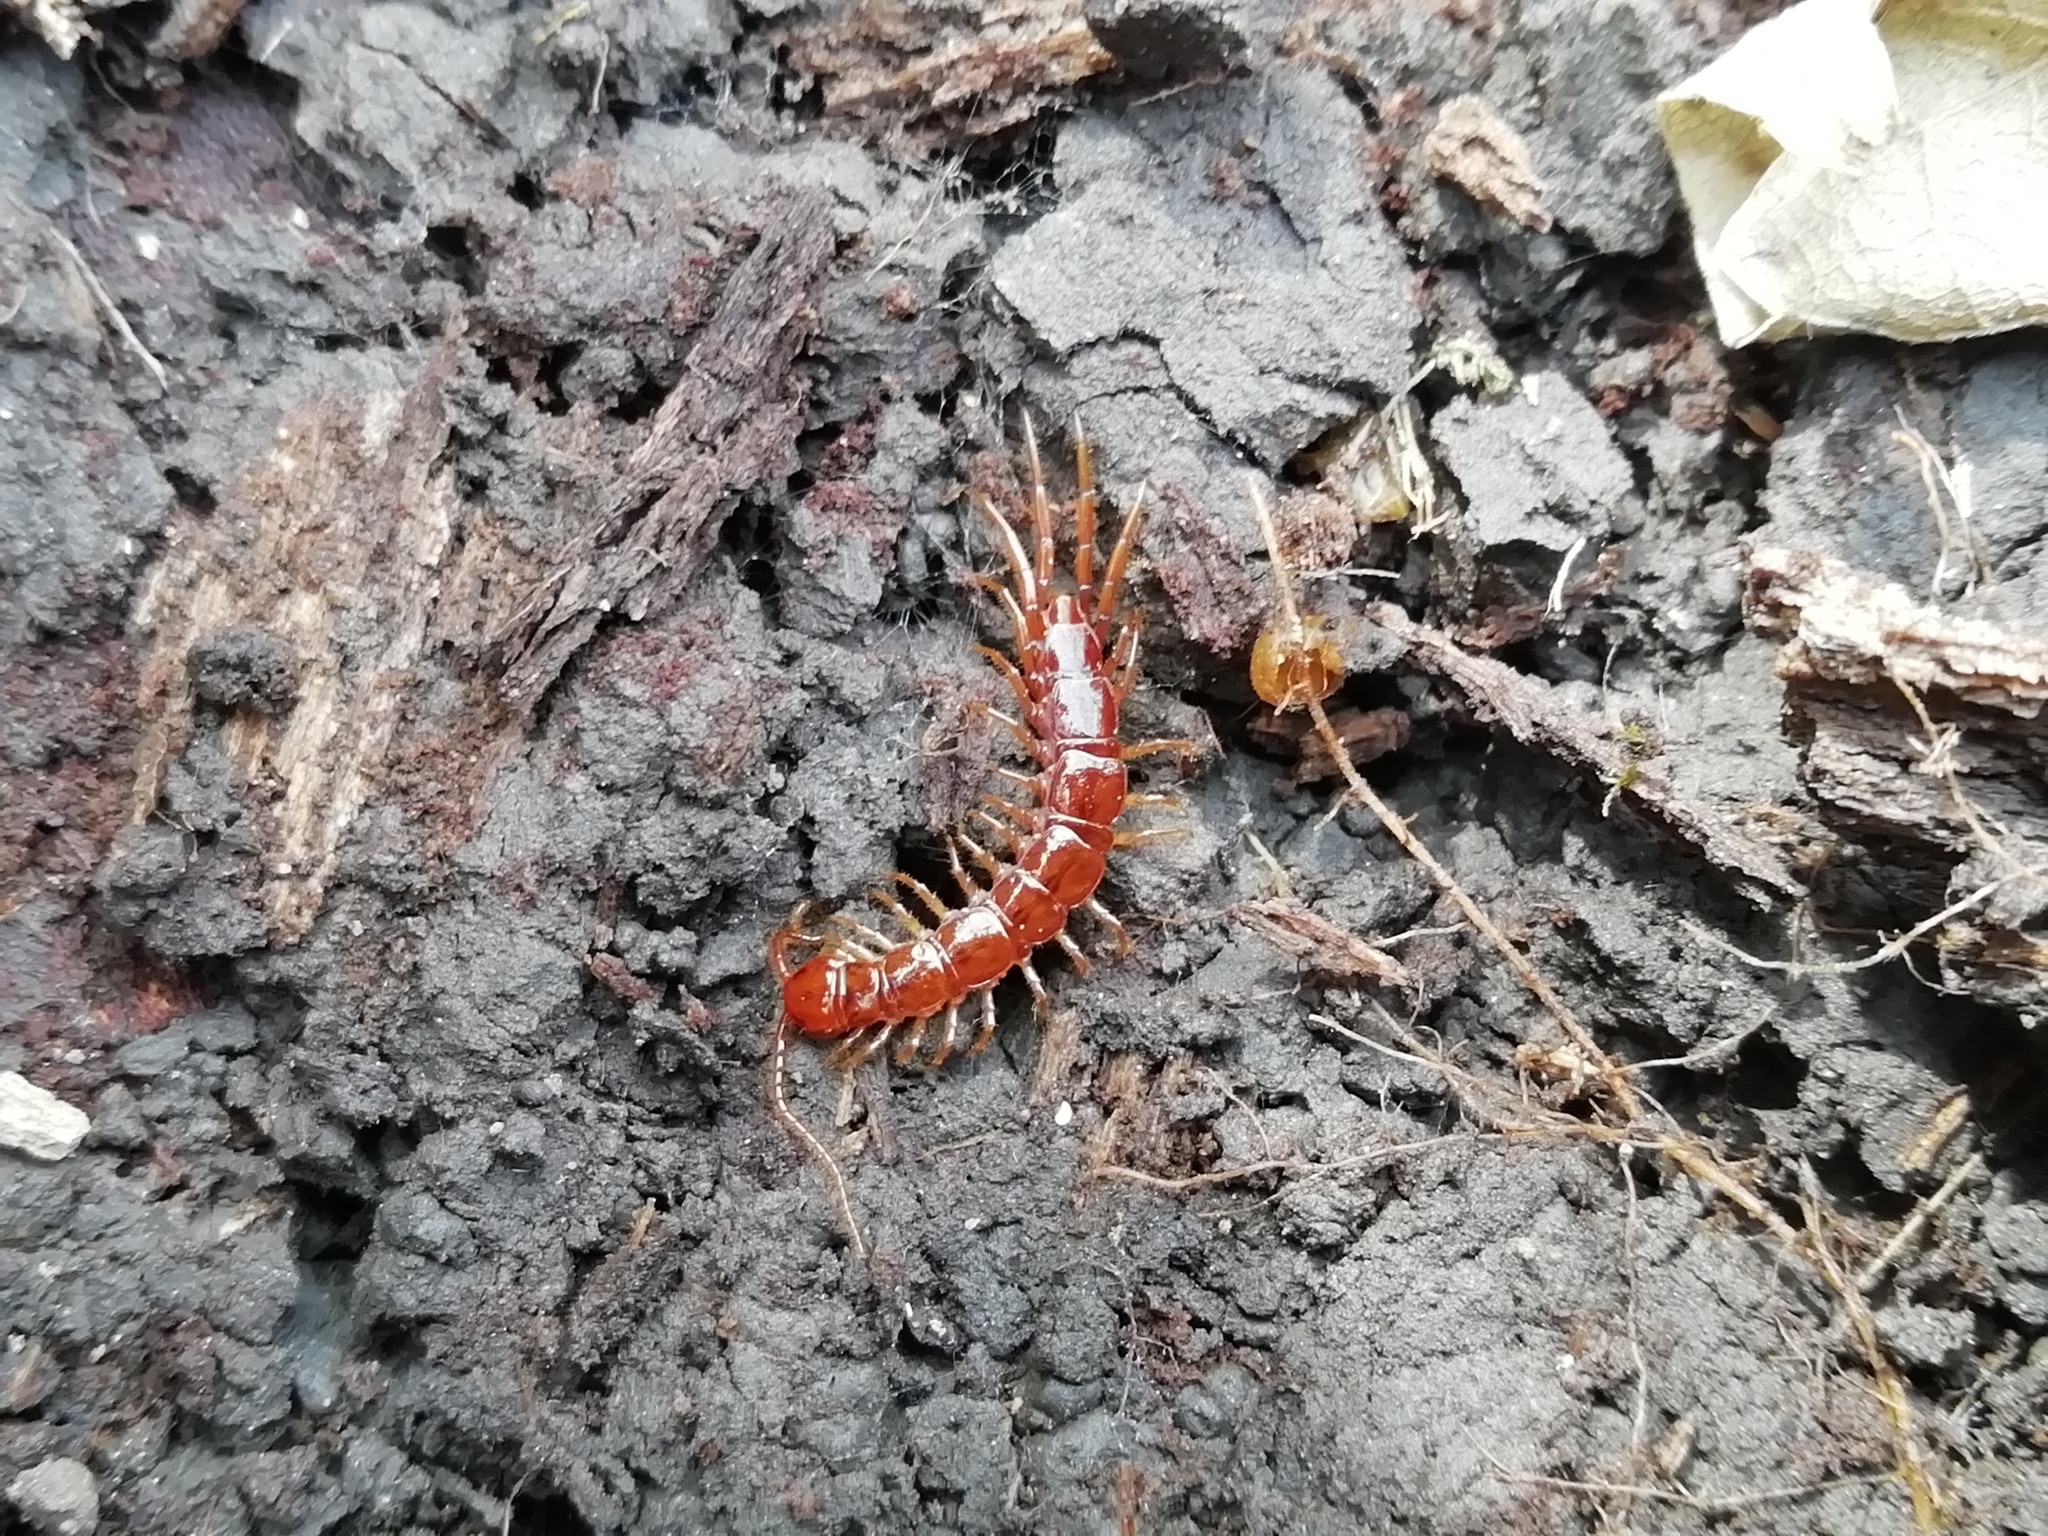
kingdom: Animalia
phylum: Arthropoda
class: Chilopoda
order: Lithobiomorpha
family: Lithobiidae
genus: Lithobius
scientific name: Lithobius forficatus
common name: Centipede
